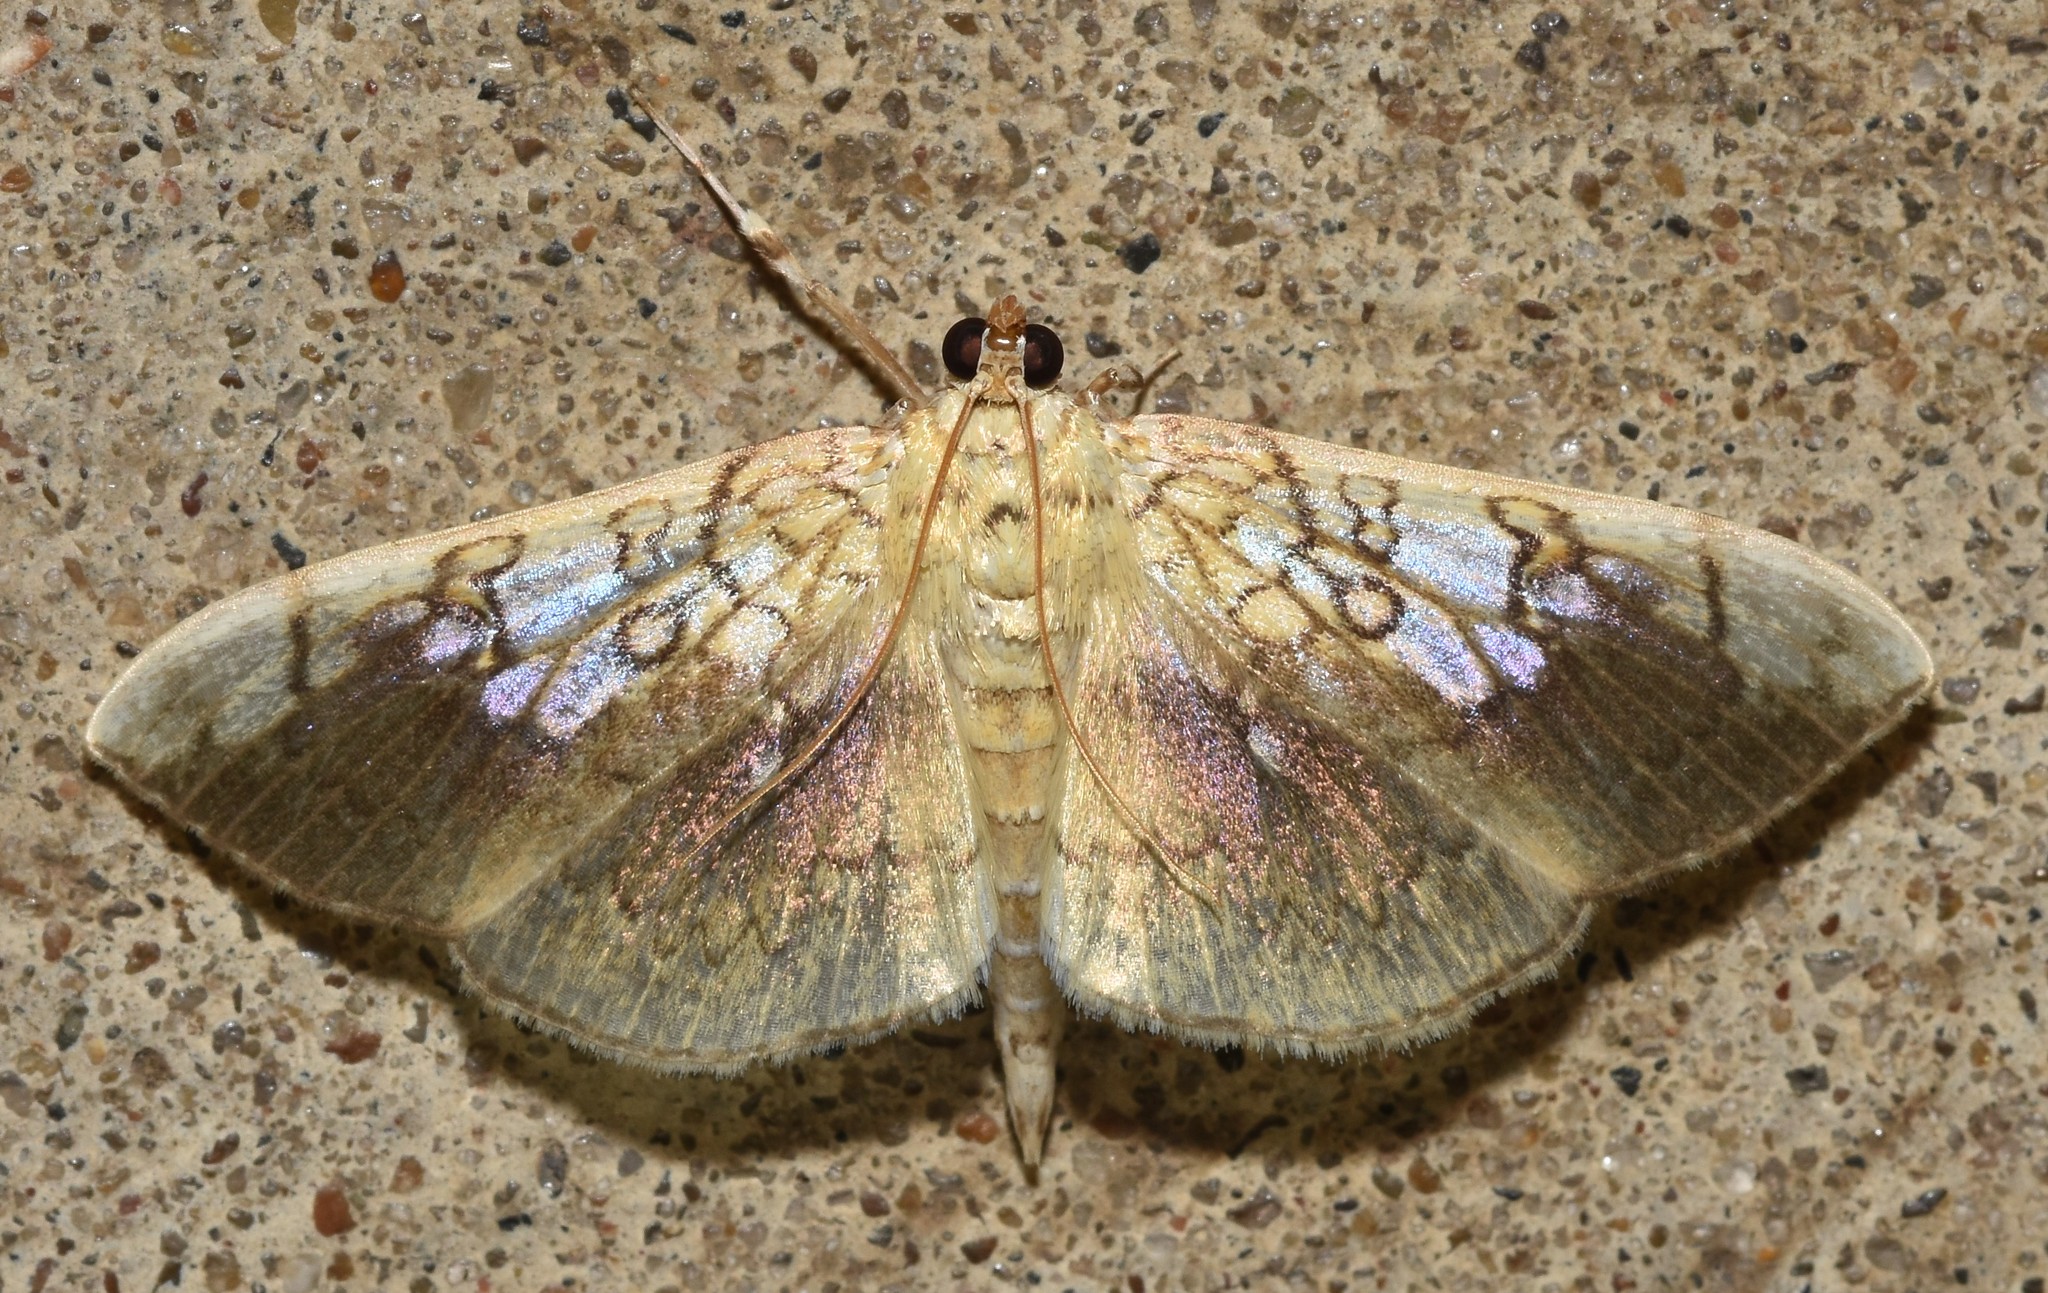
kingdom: Animalia
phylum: Arthropoda
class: Insecta
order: Lepidoptera
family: Crambidae
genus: Pantographa
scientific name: Pantographa limata
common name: Basswood leafroller moth
